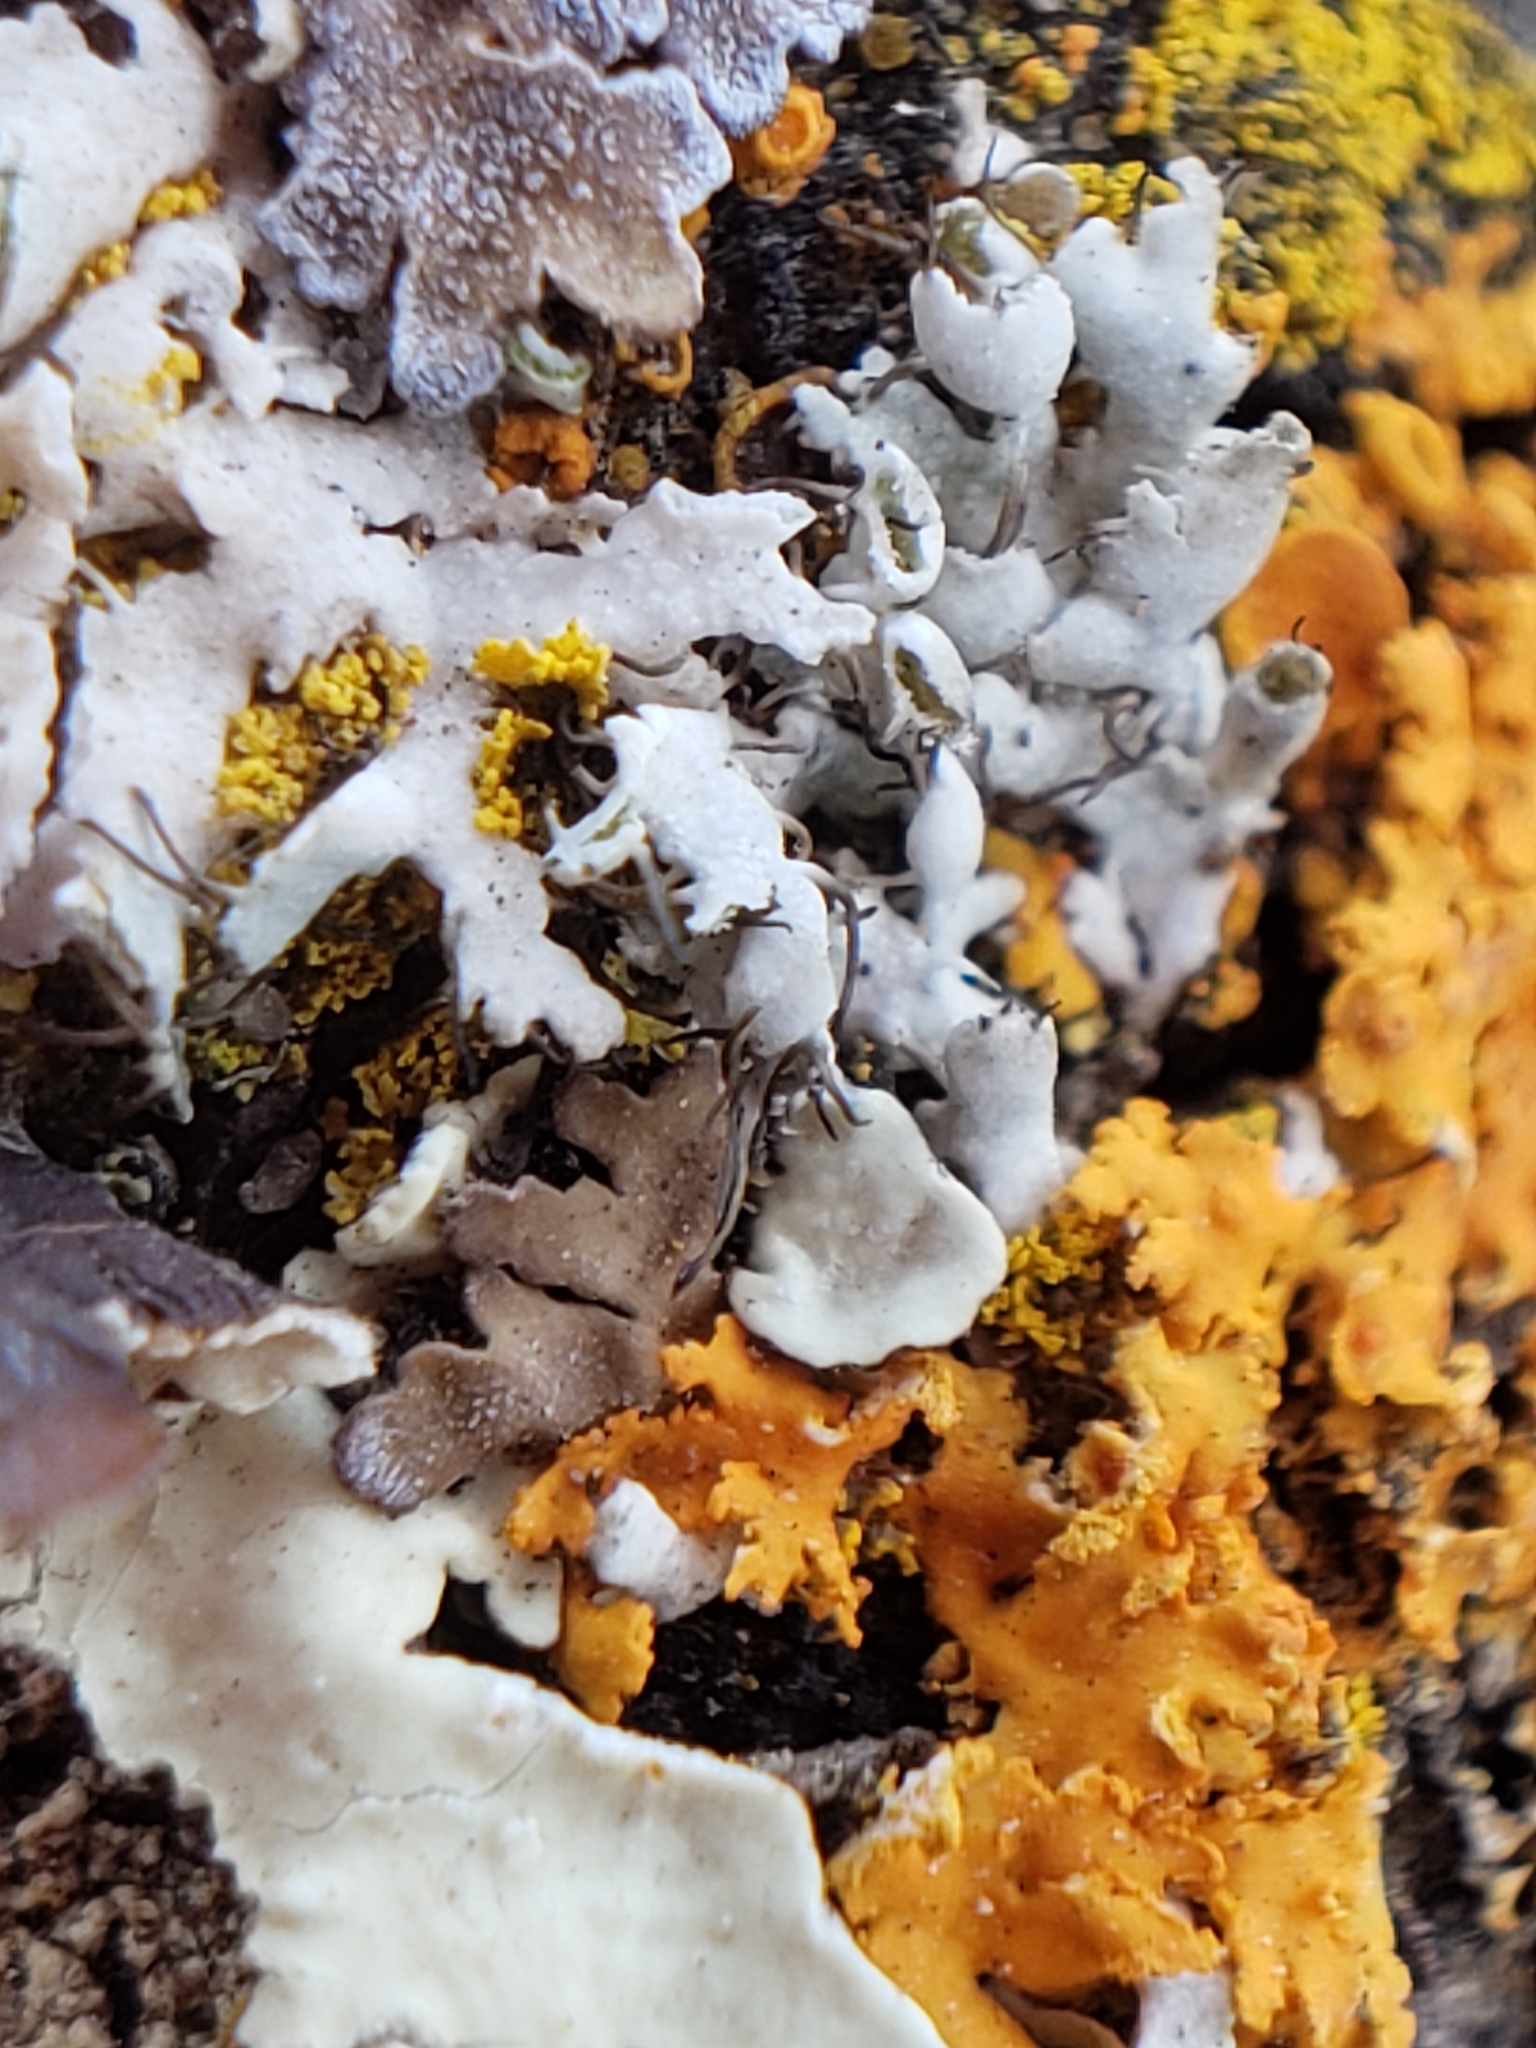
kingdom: Fungi
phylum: Ascomycota
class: Lecanoromycetes
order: Caliciales
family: Physciaceae
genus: Physcia
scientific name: Physcia adscendens
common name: Hooded rosette lichen
